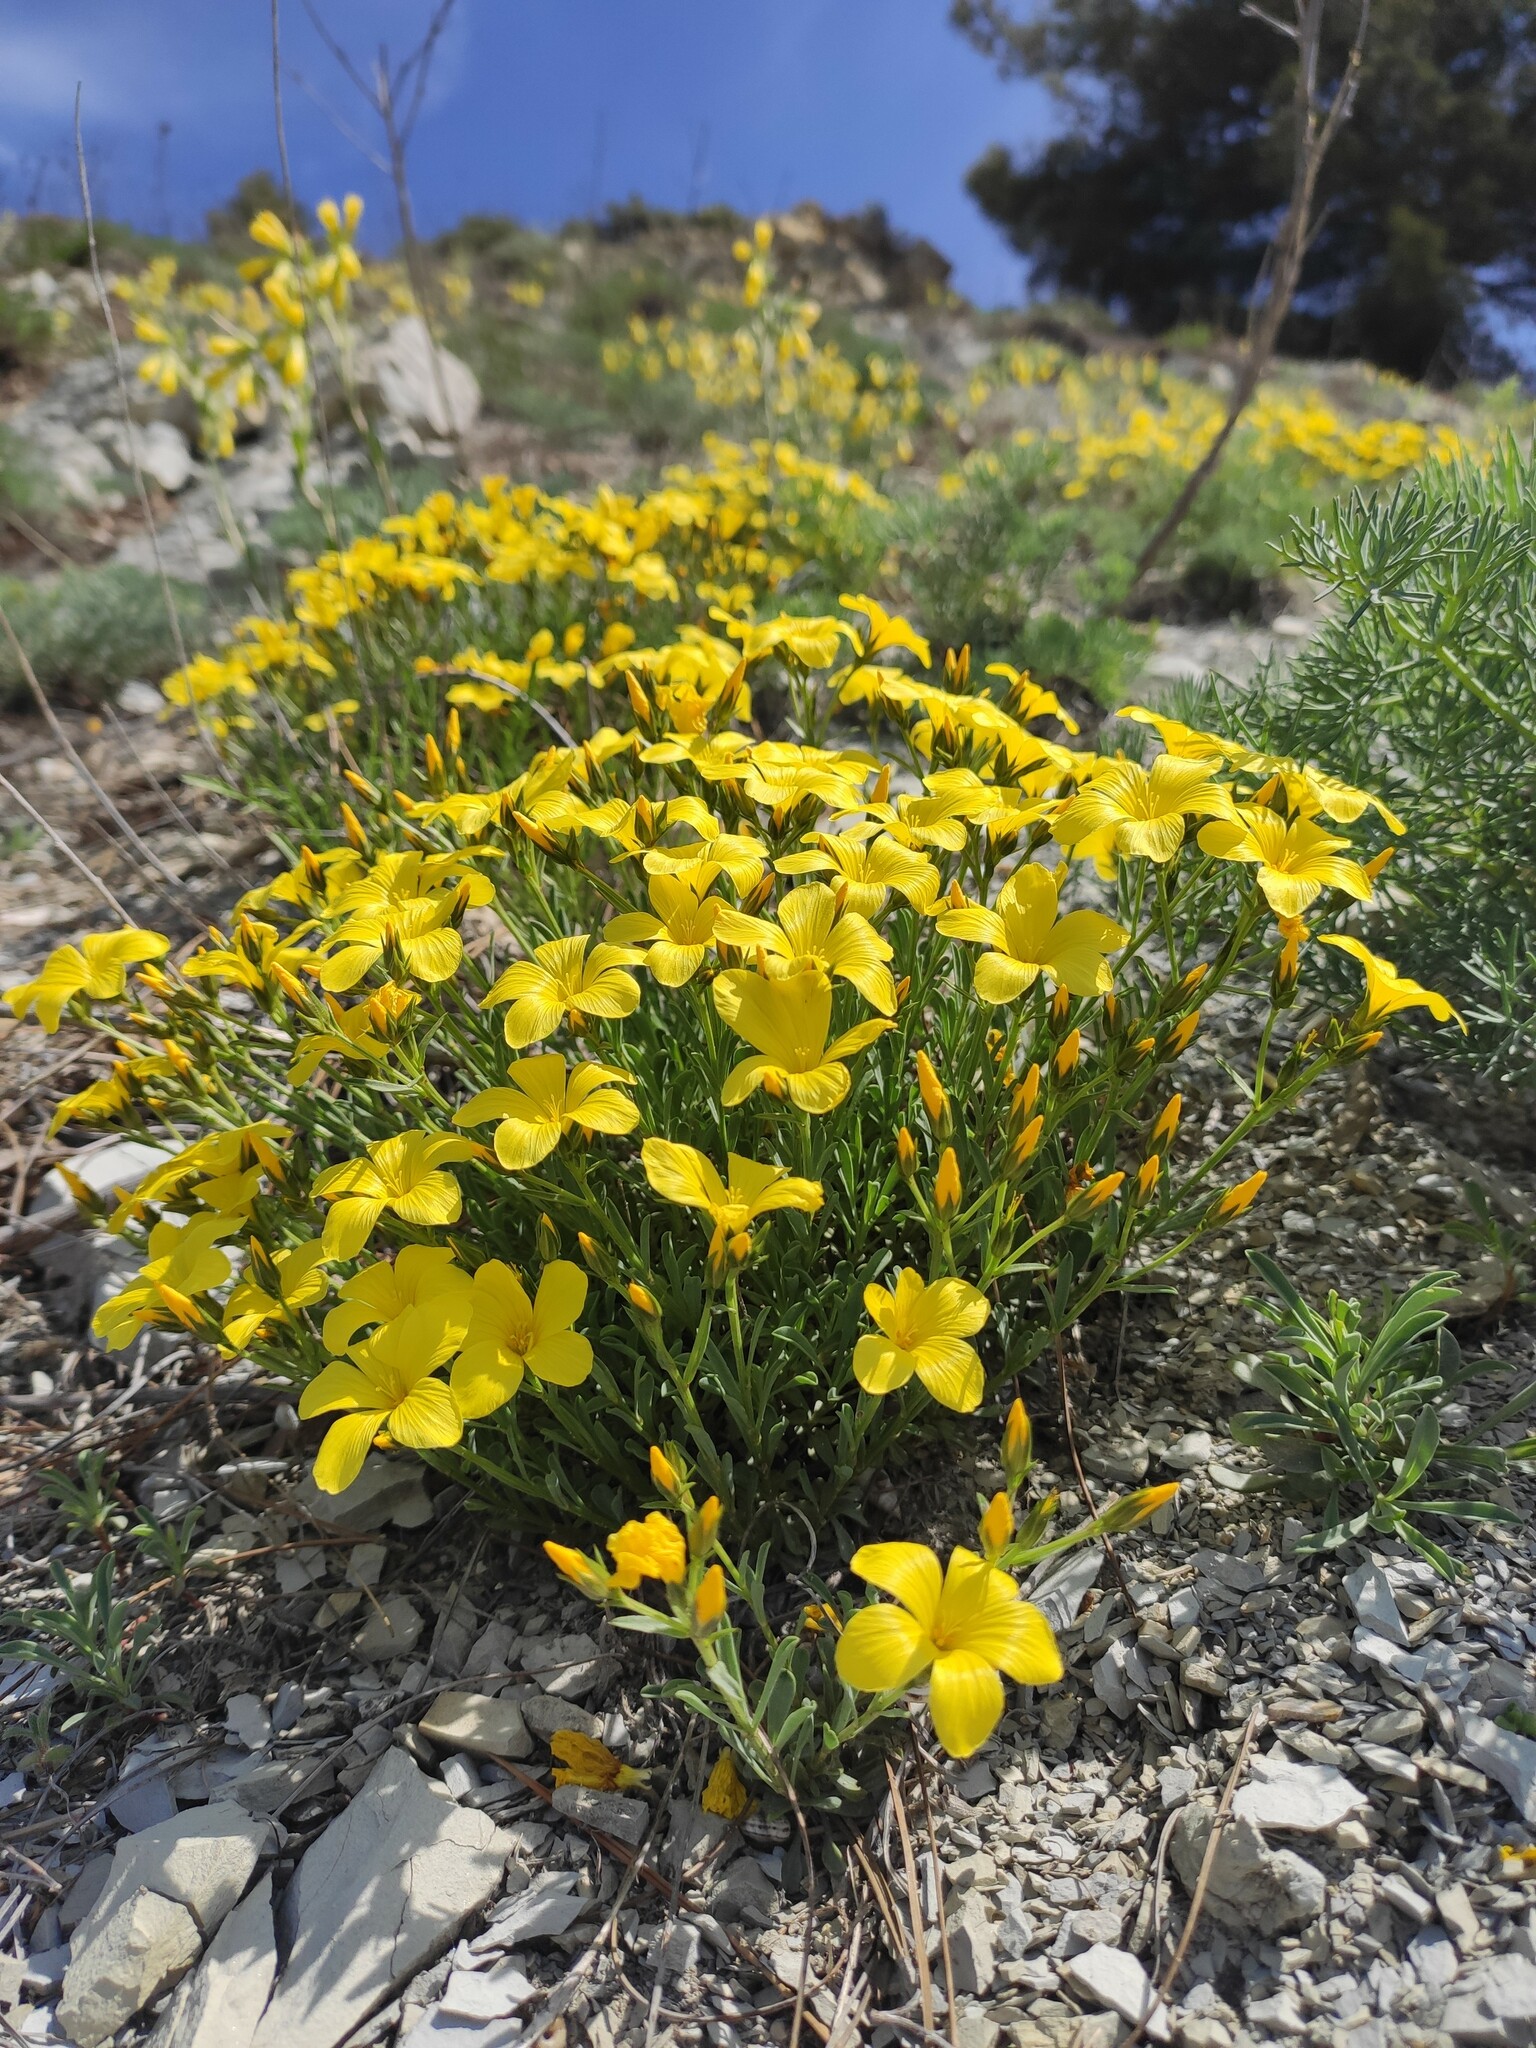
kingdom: Plantae
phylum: Tracheophyta
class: Magnoliopsida
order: Malpighiales
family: Linaceae
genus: Linum
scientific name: Linum tauricum
